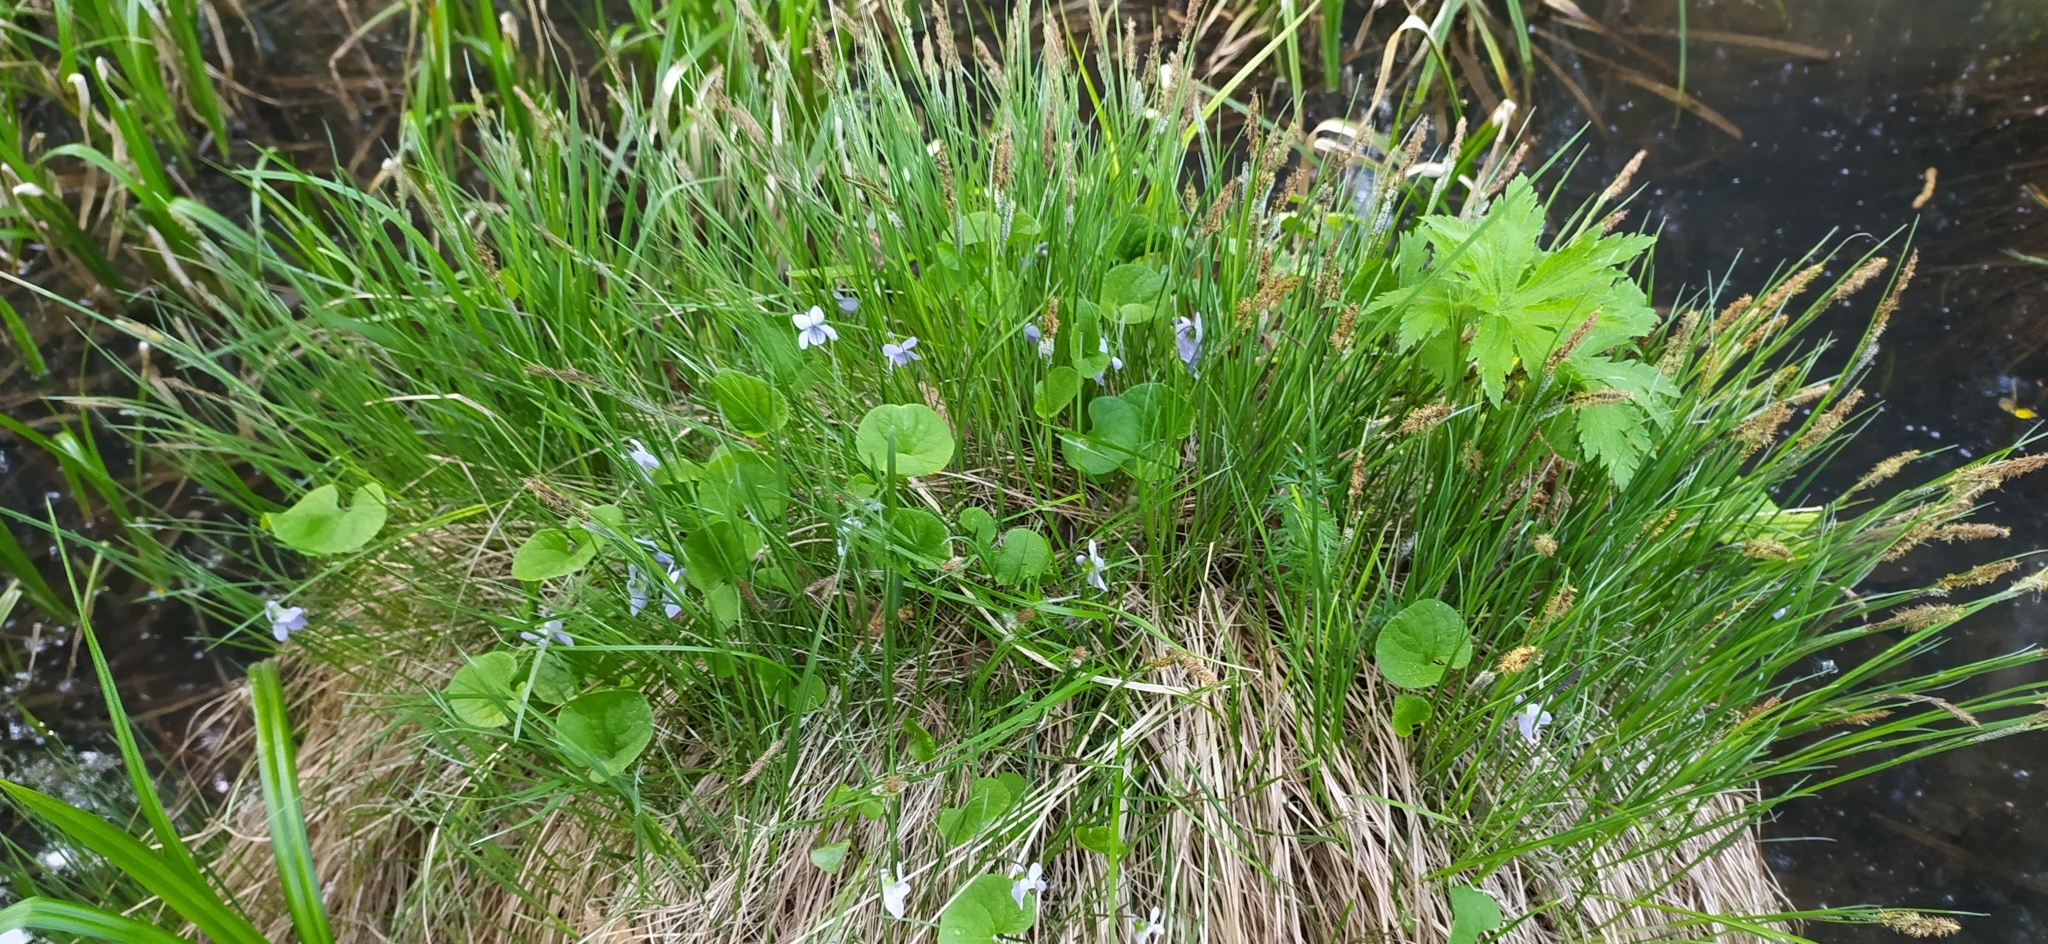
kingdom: Plantae
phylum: Tracheophyta
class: Magnoliopsida
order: Malpighiales
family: Violaceae
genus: Viola
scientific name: Viola epipsila
